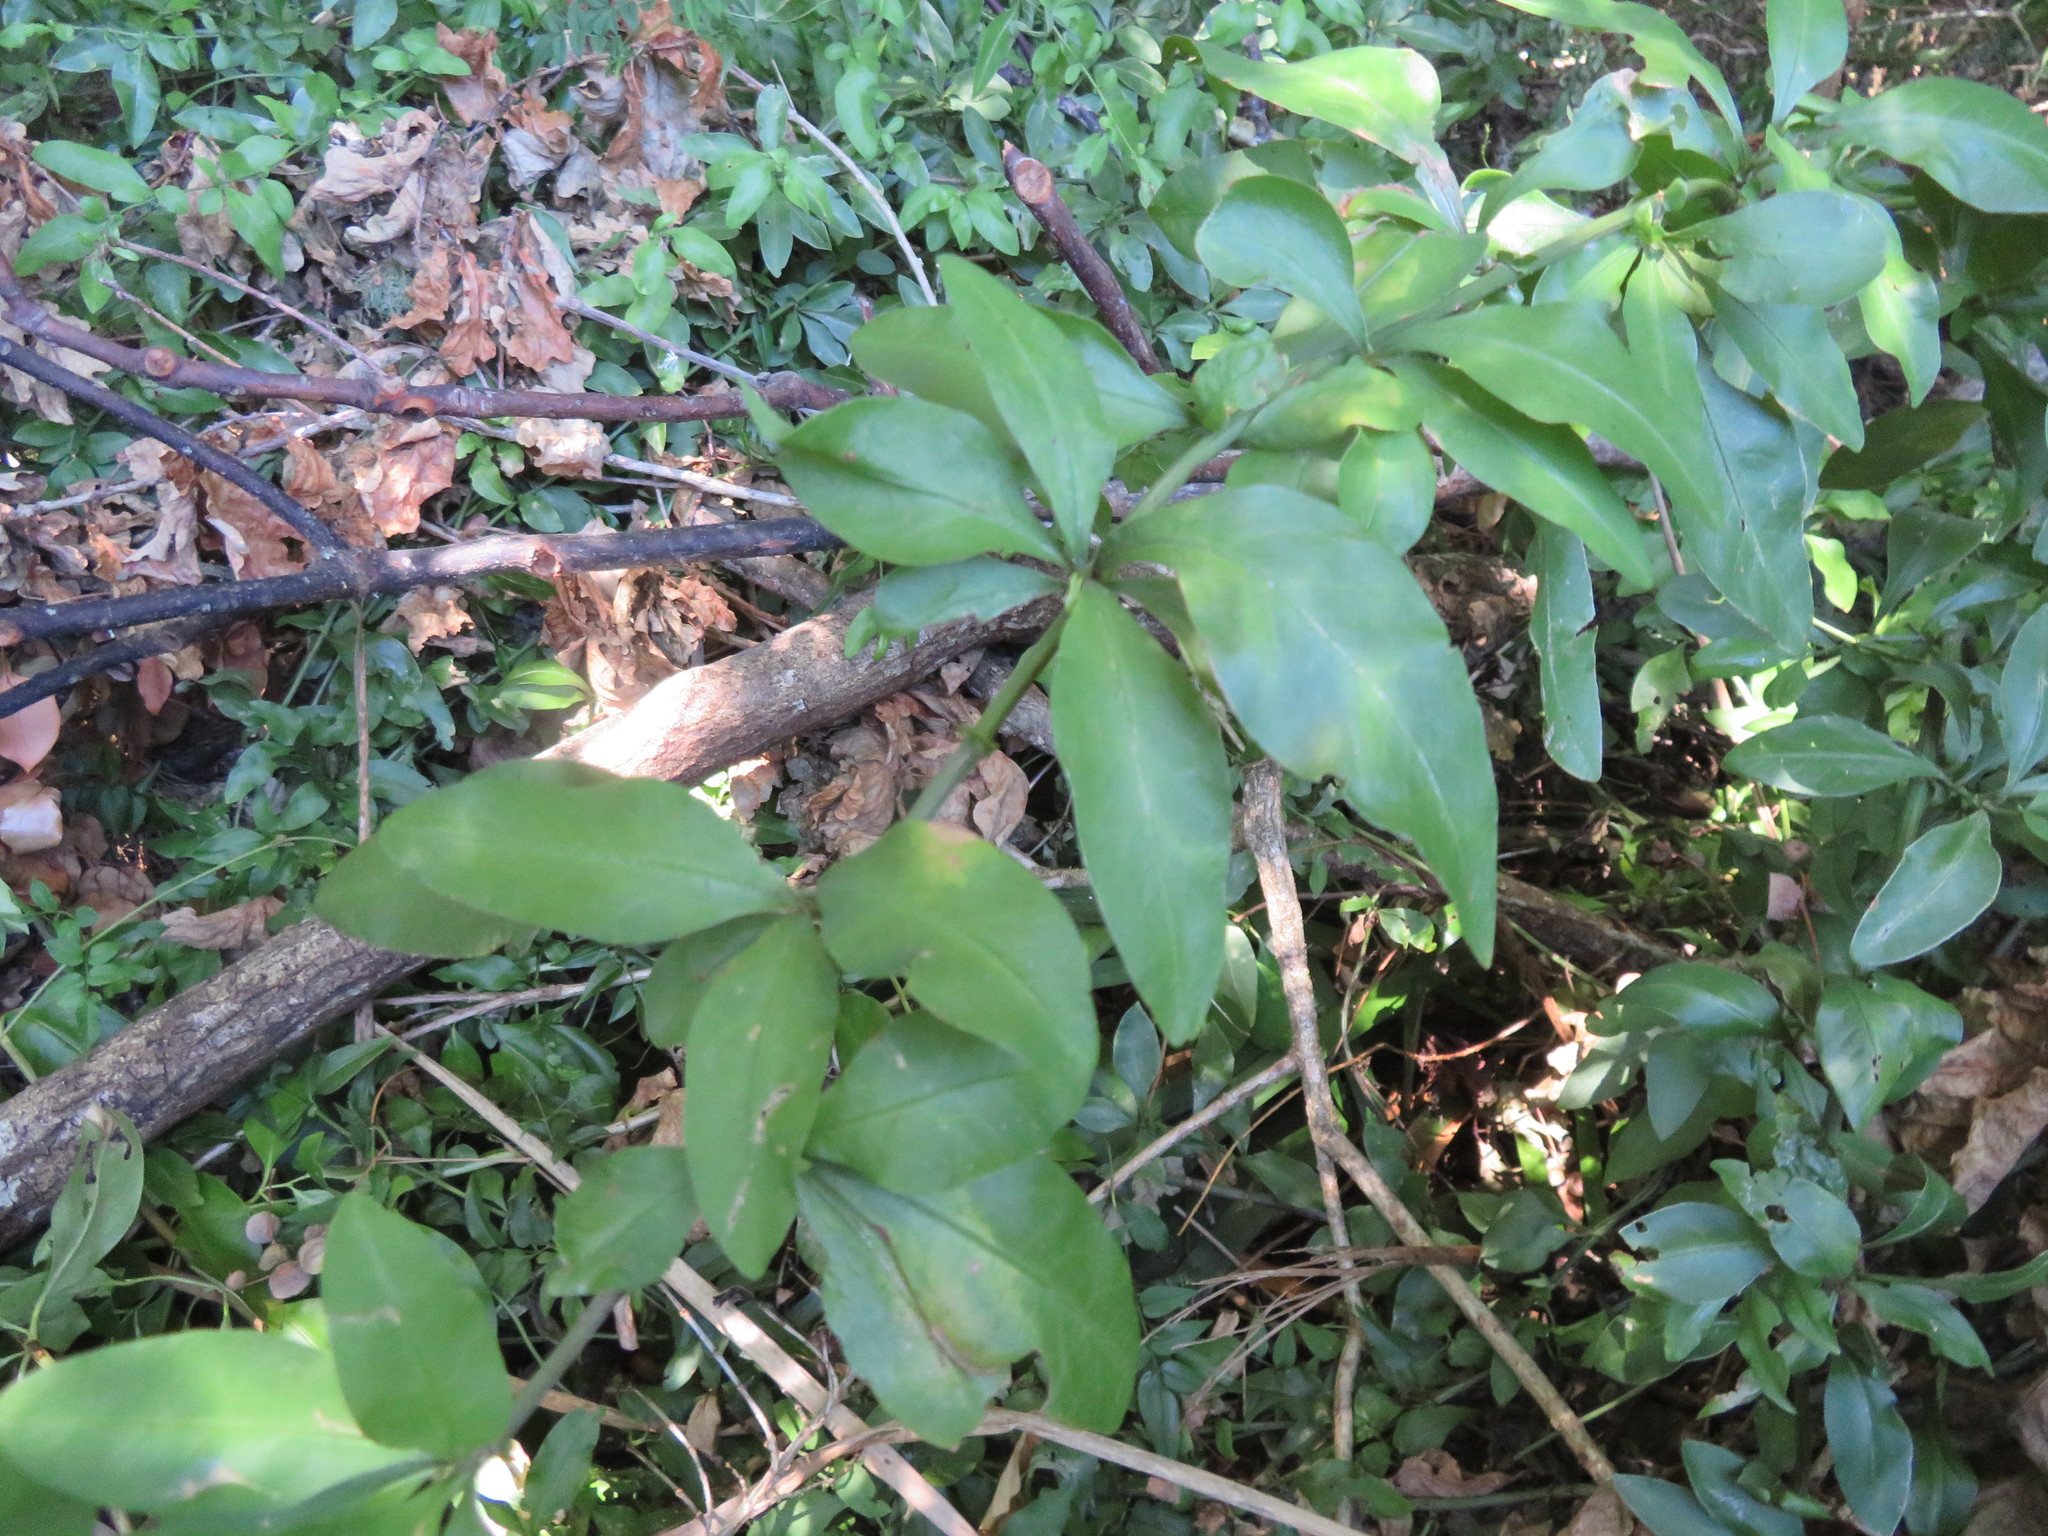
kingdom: Plantae
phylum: Tracheophyta
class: Magnoliopsida
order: Caryophyllales
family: Plumbaginaceae
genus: Plumbago
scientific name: Plumbago auriculata
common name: Cape leadwort
